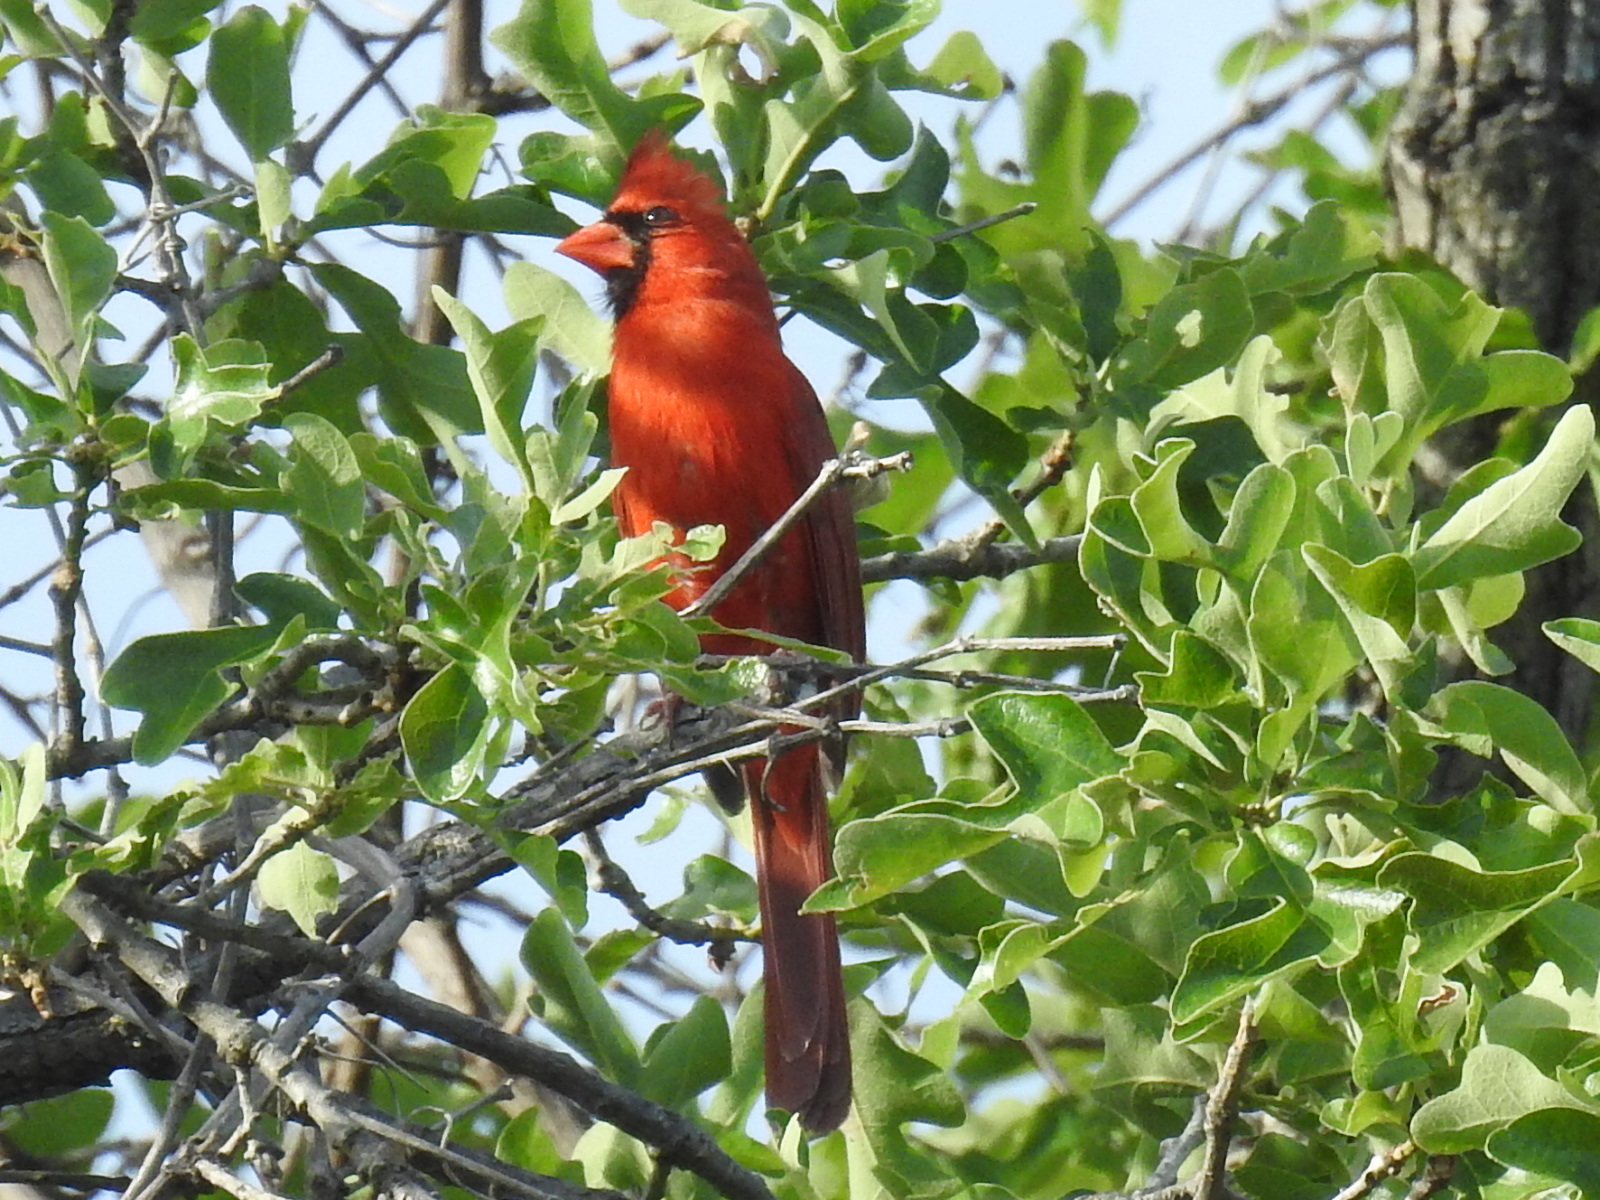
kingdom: Animalia
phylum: Chordata
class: Aves
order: Passeriformes
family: Cardinalidae
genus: Cardinalis
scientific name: Cardinalis cardinalis
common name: Northern cardinal
